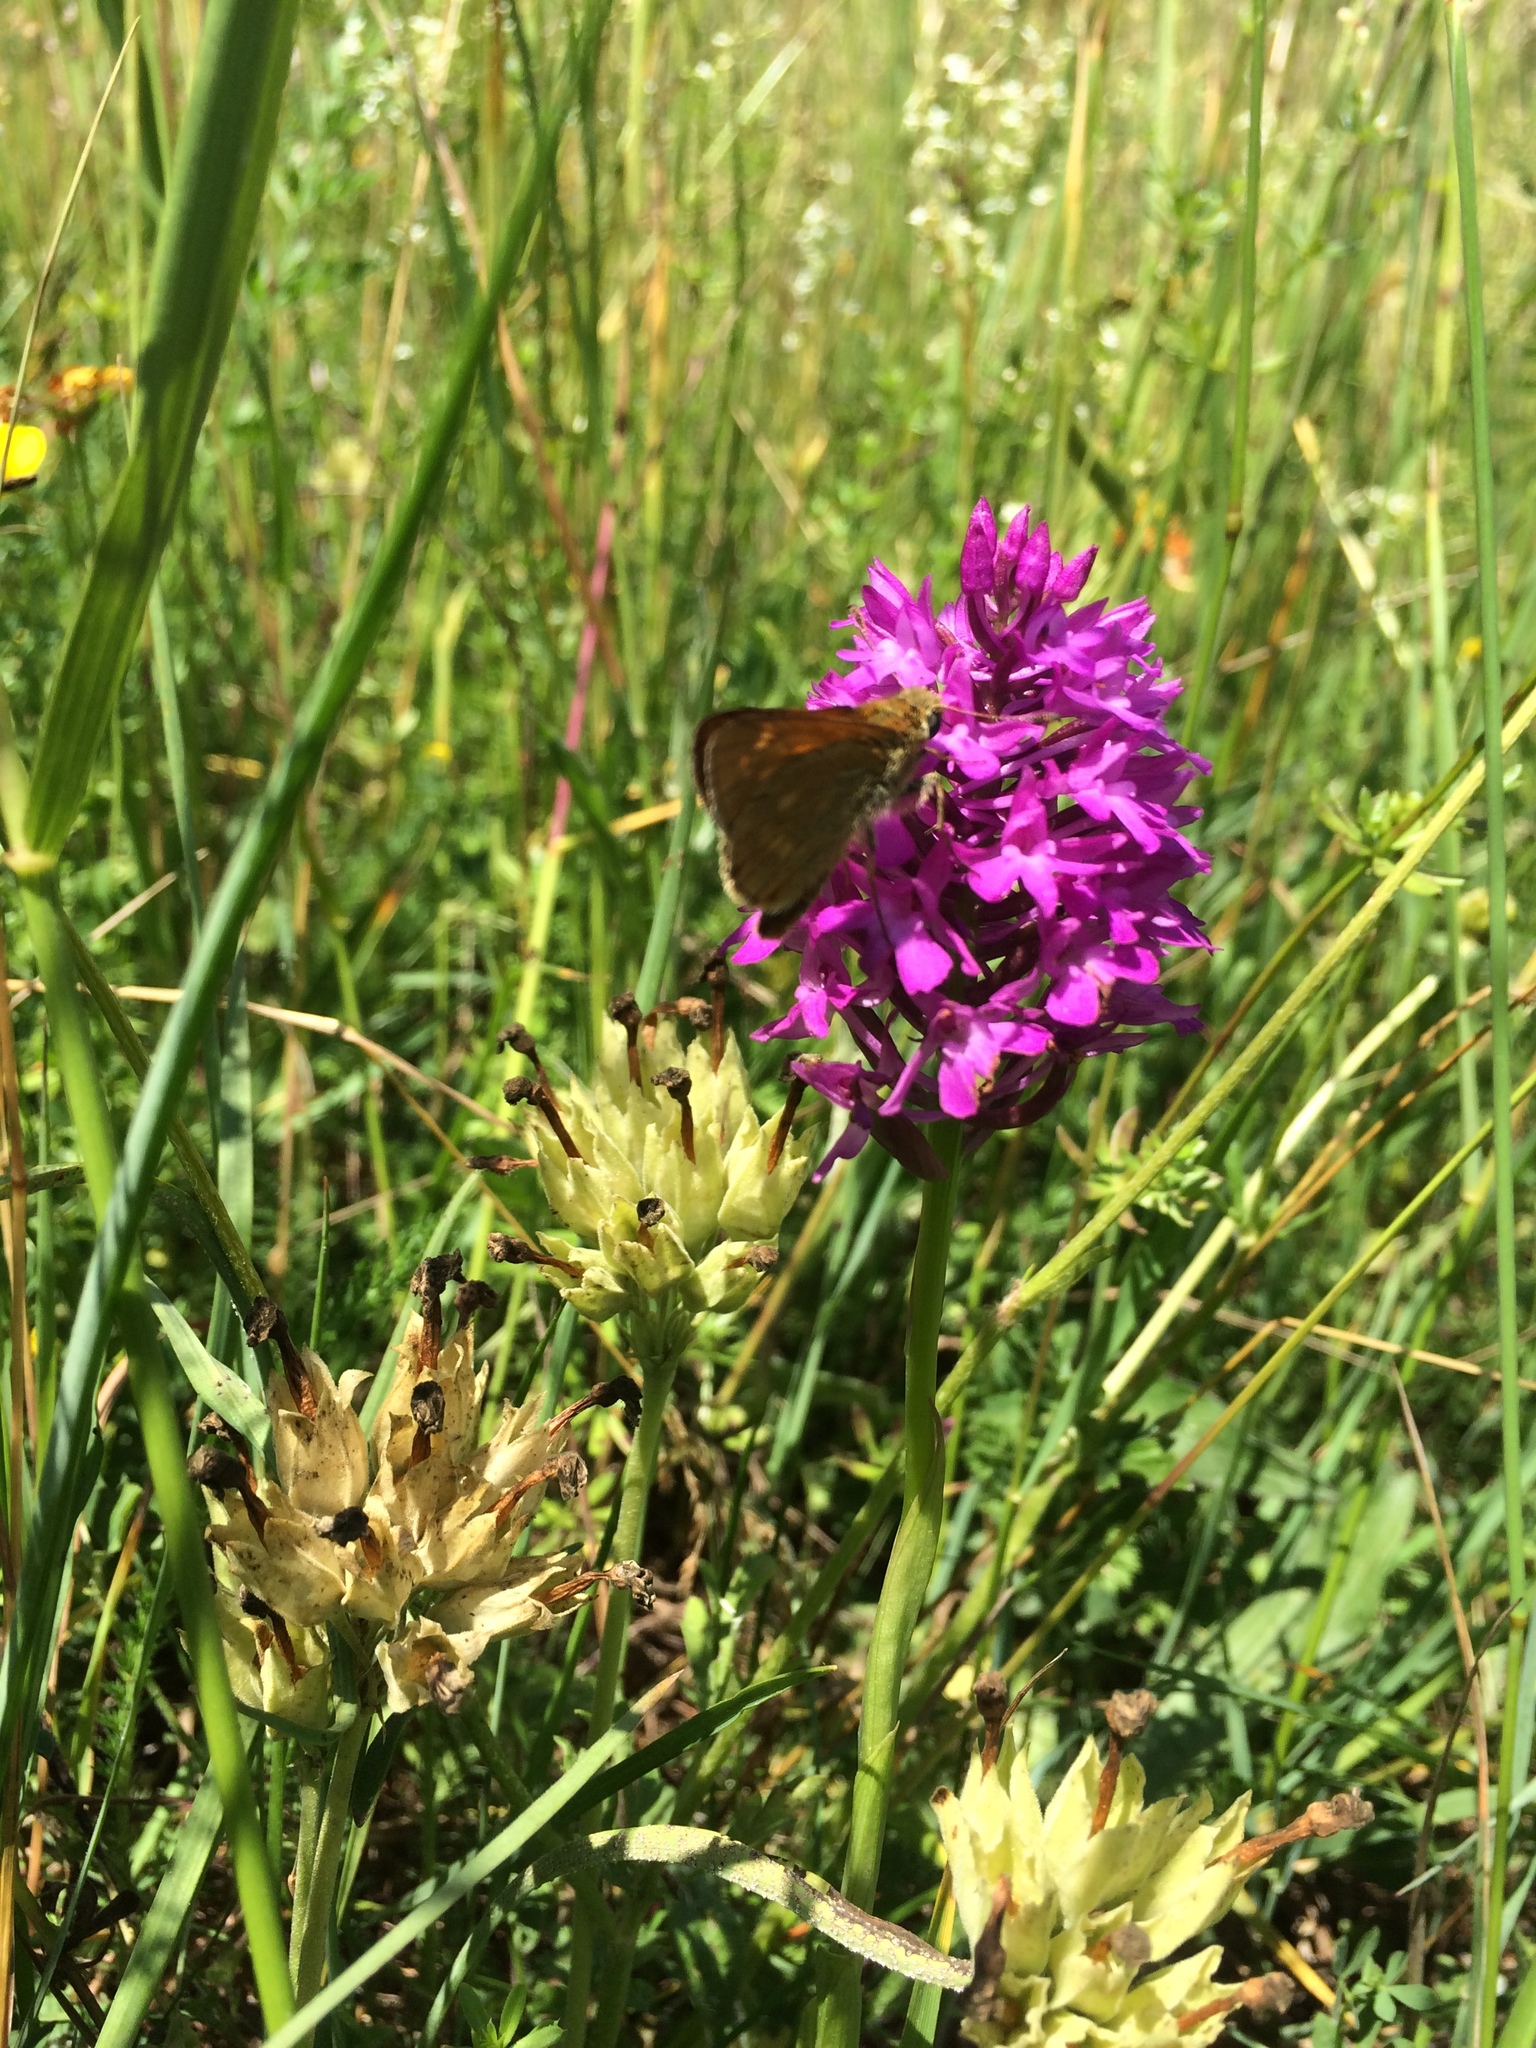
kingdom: Plantae
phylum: Tracheophyta
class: Liliopsida
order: Asparagales
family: Orchidaceae
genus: Anacamptis
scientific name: Anacamptis pyramidalis
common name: Pyramidal orchid
